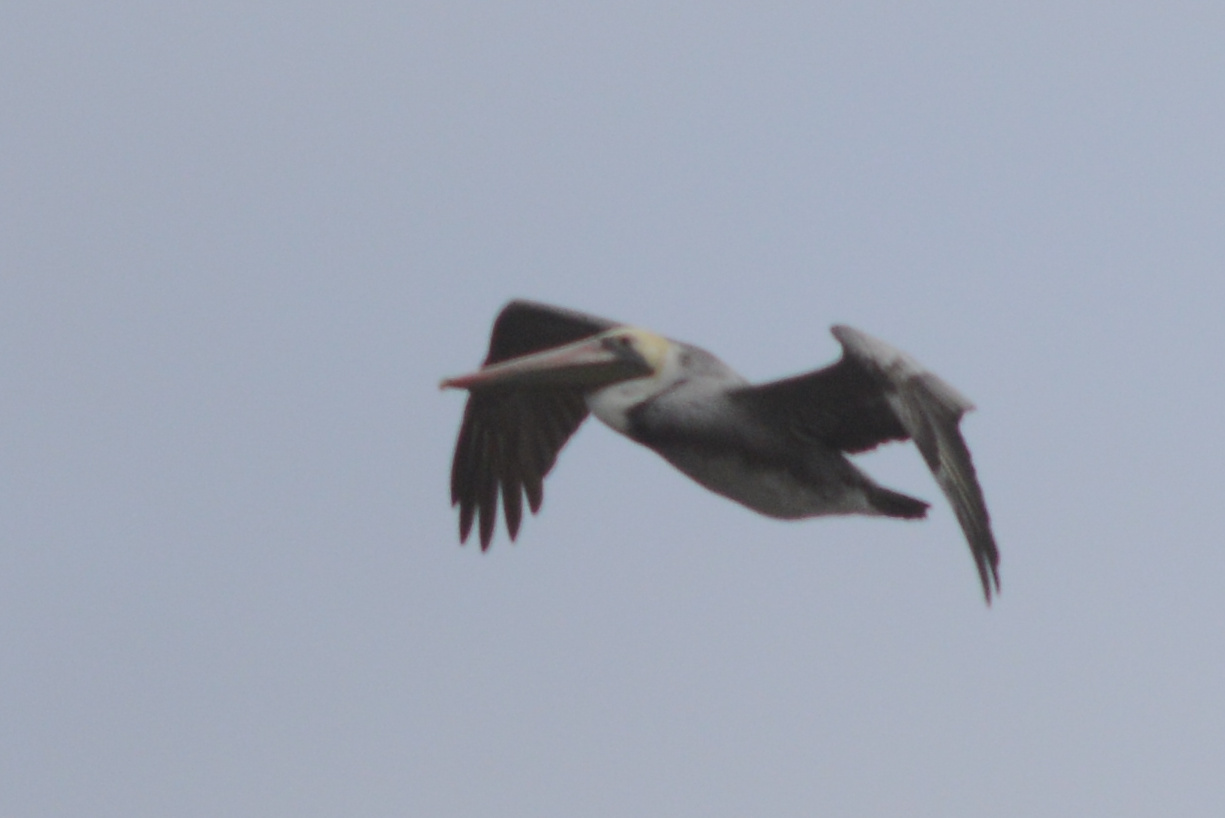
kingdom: Animalia
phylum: Chordata
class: Aves
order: Pelecaniformes
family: Pelecanidae
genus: Pelecanus
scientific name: Pelecanus occidentalis
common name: Brown pelican
